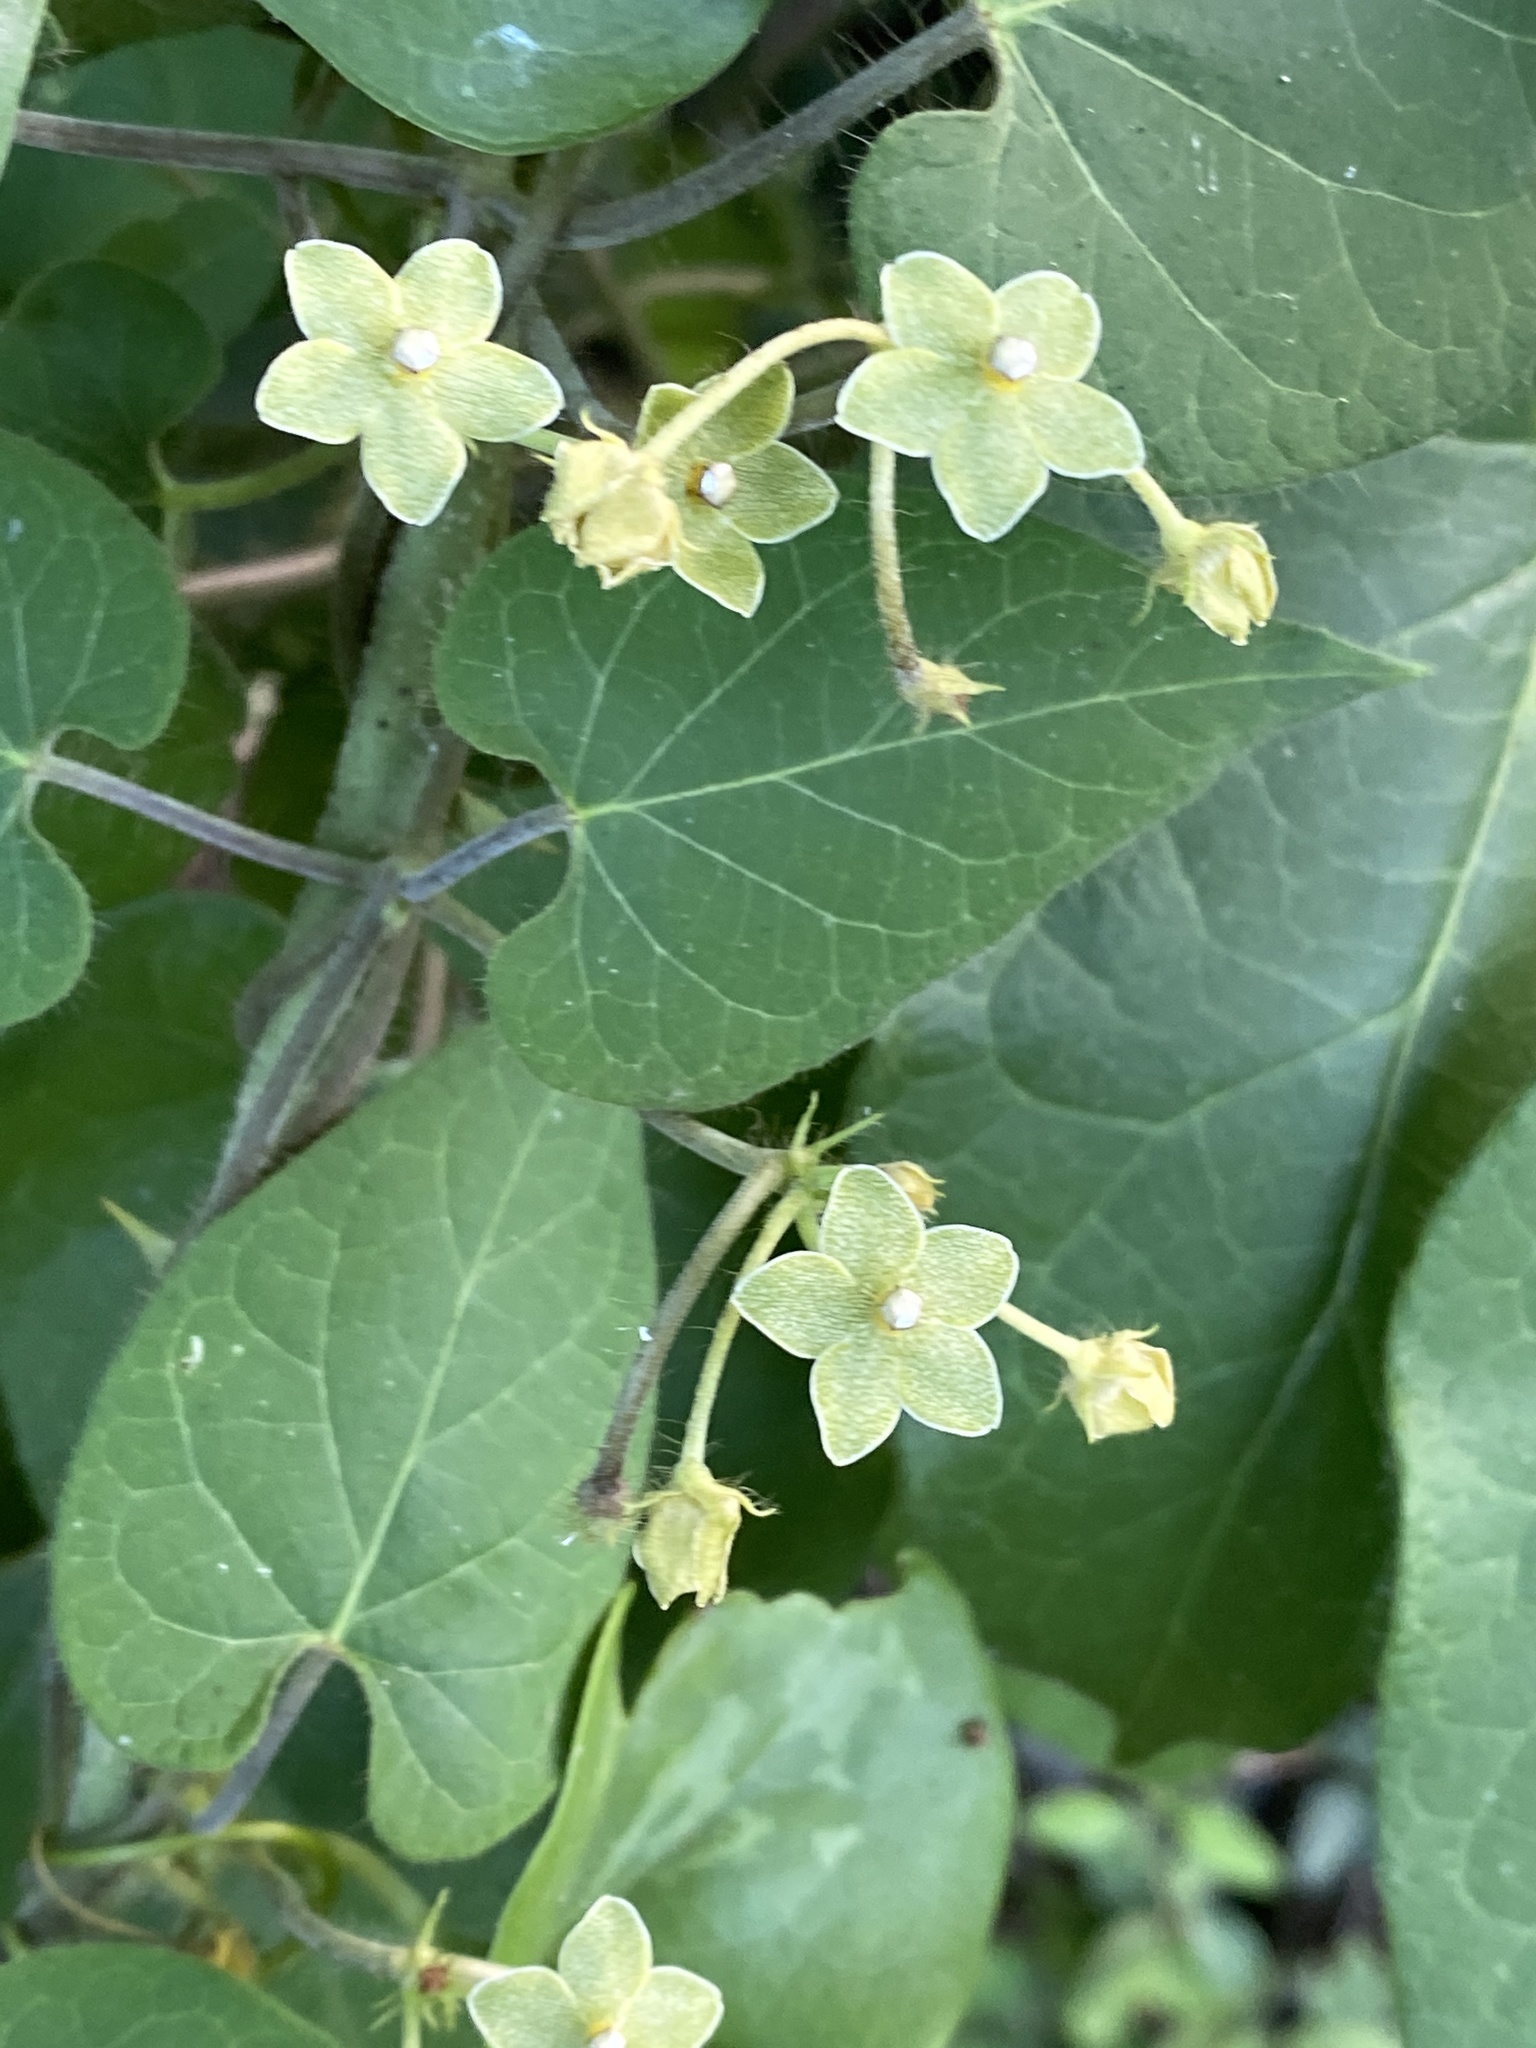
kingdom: Plantae
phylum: Tracheophyta
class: Magnoliopsida
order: Gentianales
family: Apocynaceae
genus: Dictyanthus
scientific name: Dictyanthus reticulatus
